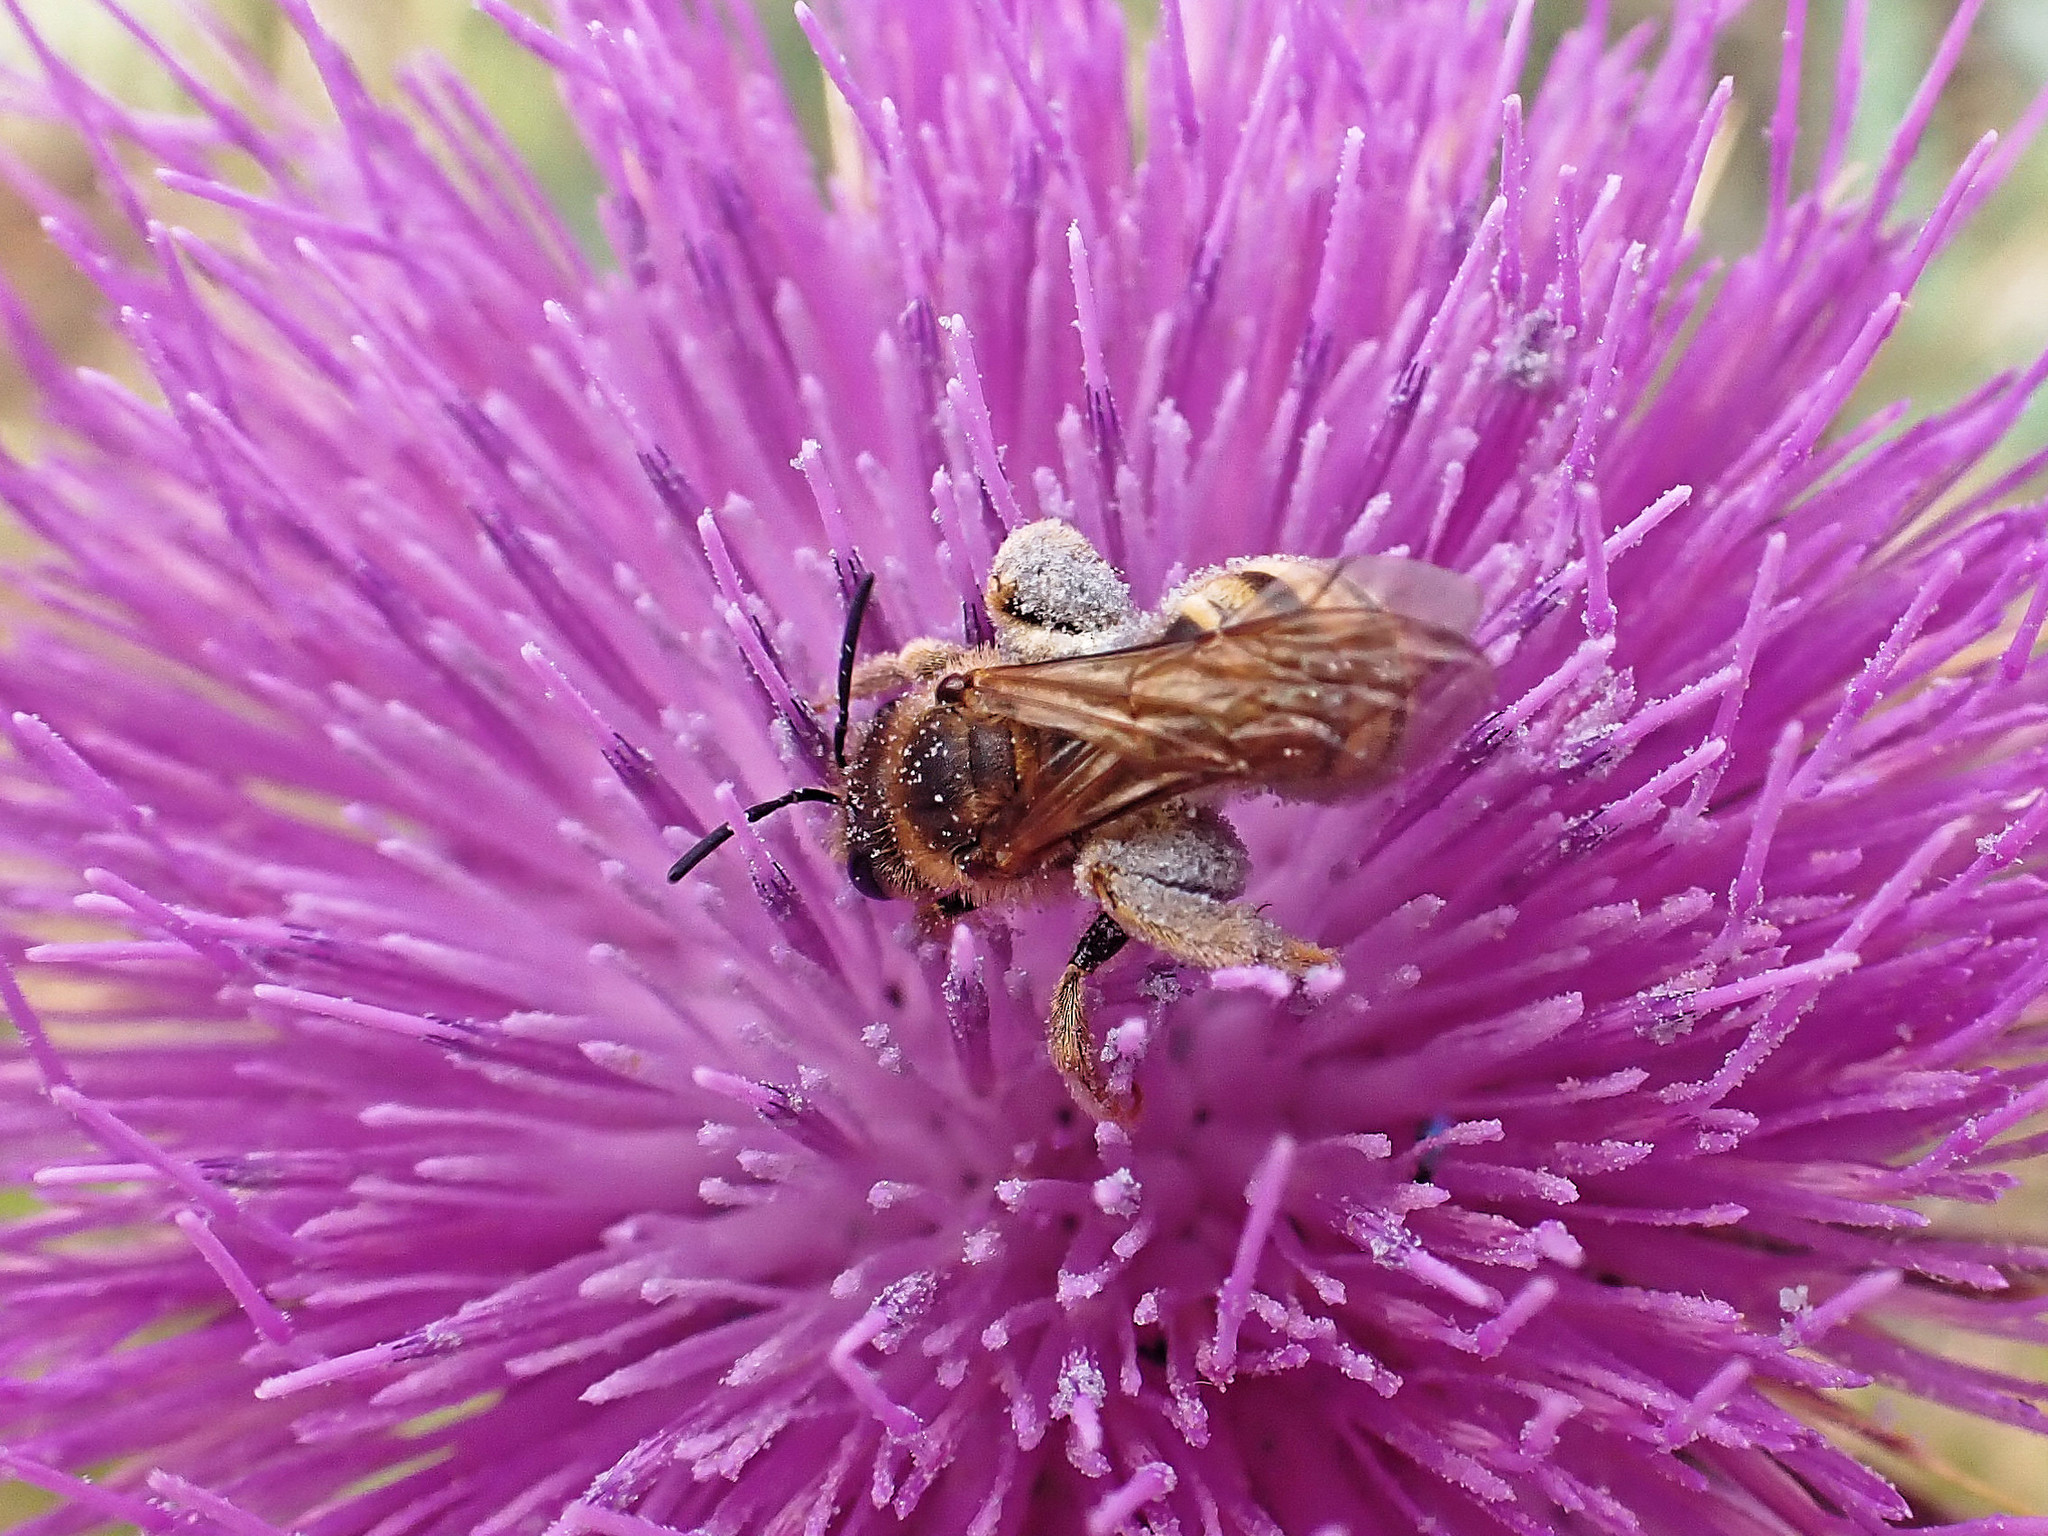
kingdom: Animalia
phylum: Arthropoda
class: Insecta
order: Hymenoptera
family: Halictidae
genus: Halictus
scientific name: Halictus scabiosae
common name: Great banded furrow bee
